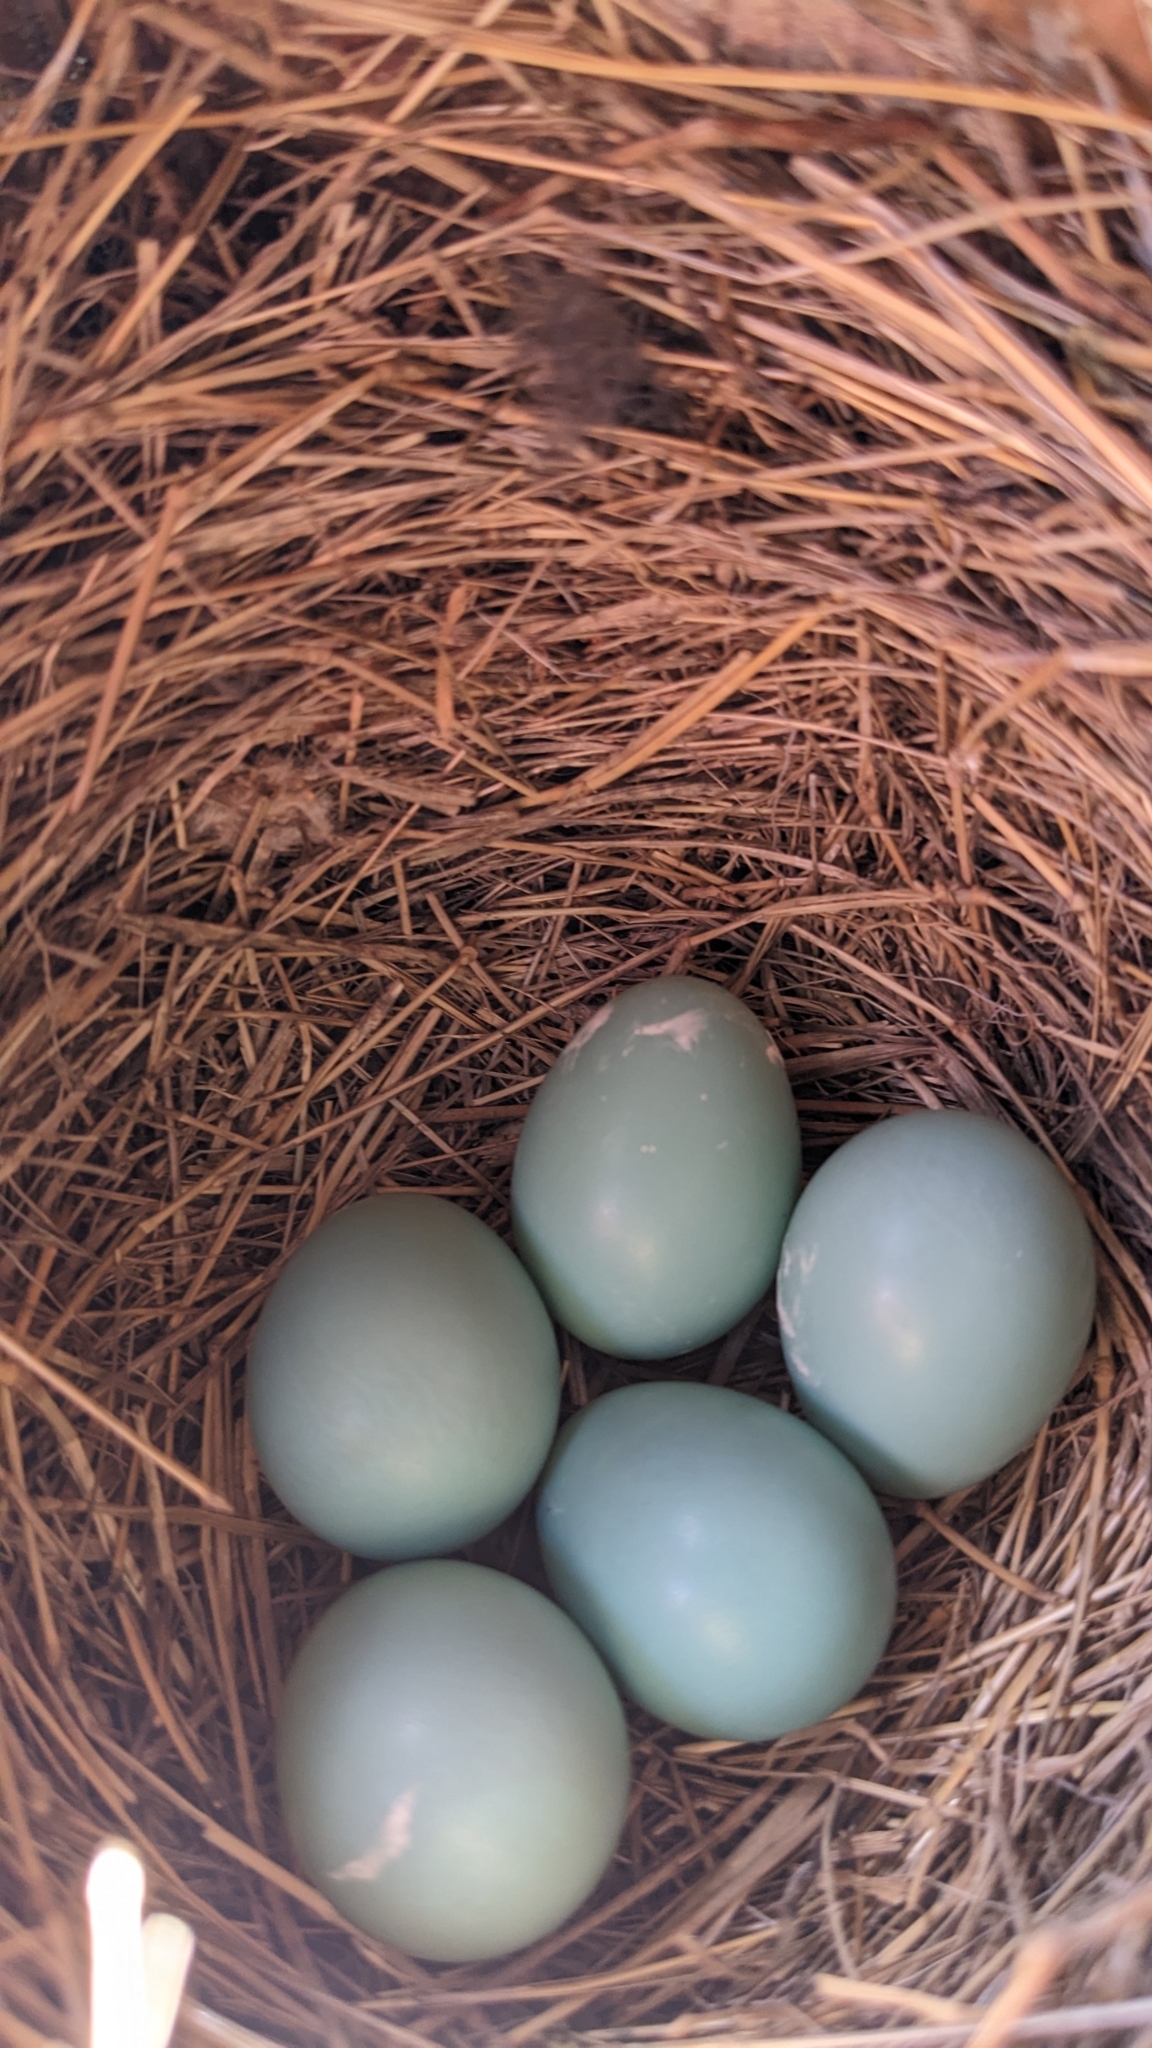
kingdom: Animalia
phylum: Chordata
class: Aves
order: Passeriformes
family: Turdidae
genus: Sialia
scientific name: Sialia sialis
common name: Eastern bluebird
